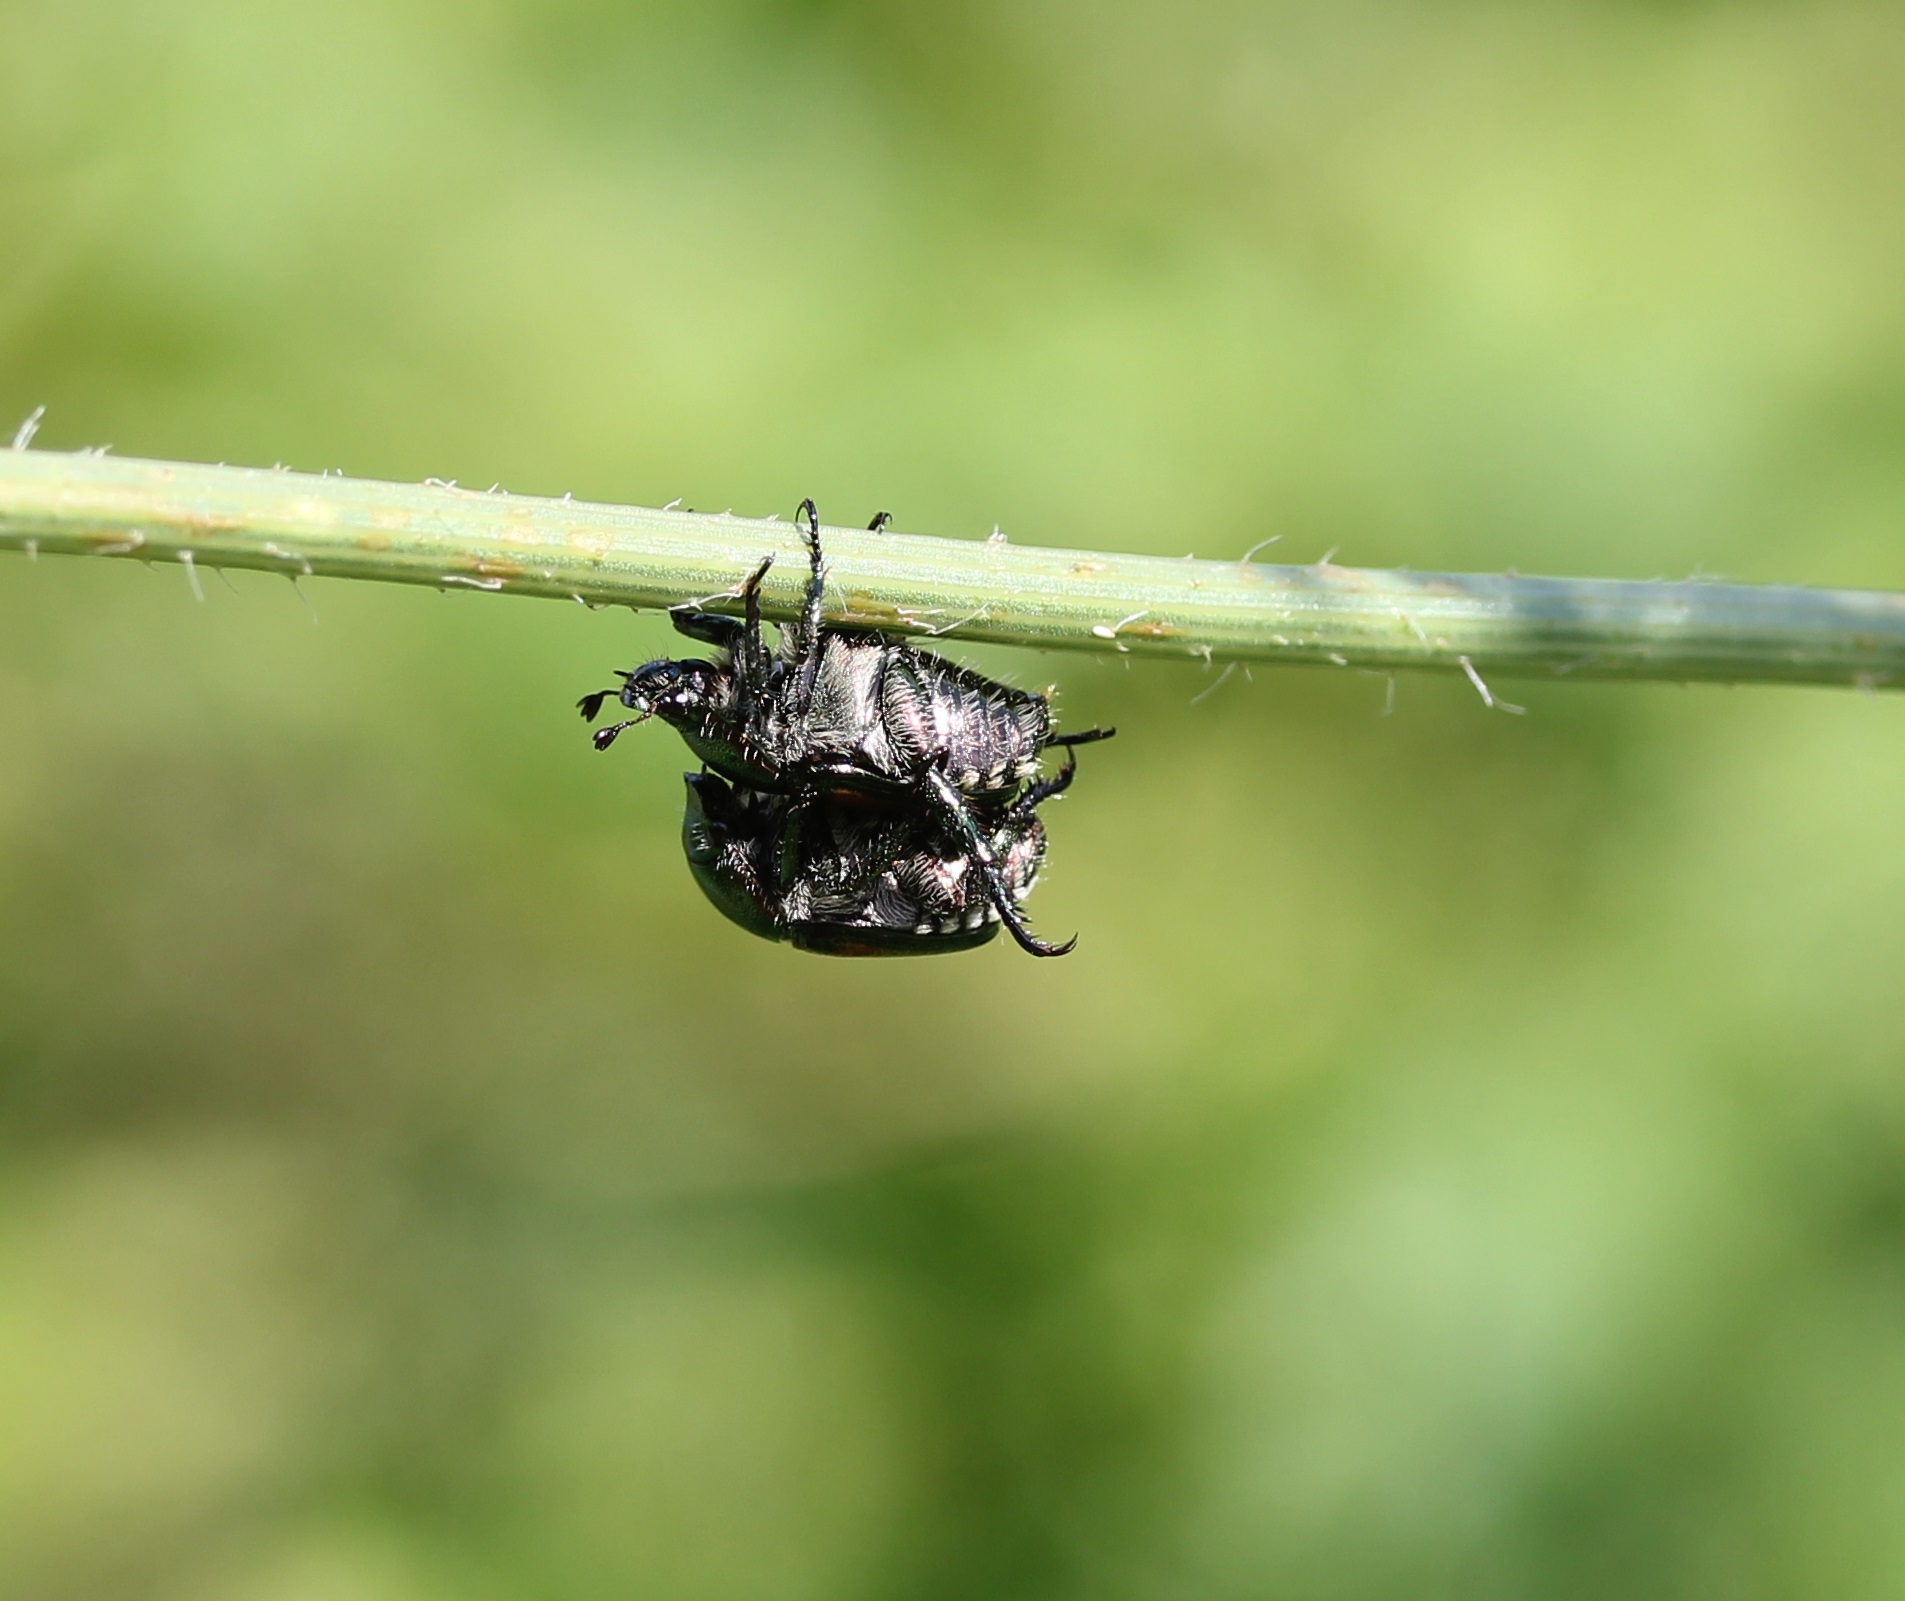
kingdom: Animalia
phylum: Arthropoda
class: Insecta
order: Coleoptera
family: Scarabaeidae
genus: Popillia
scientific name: Popillia japonica
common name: Japanese beetle
